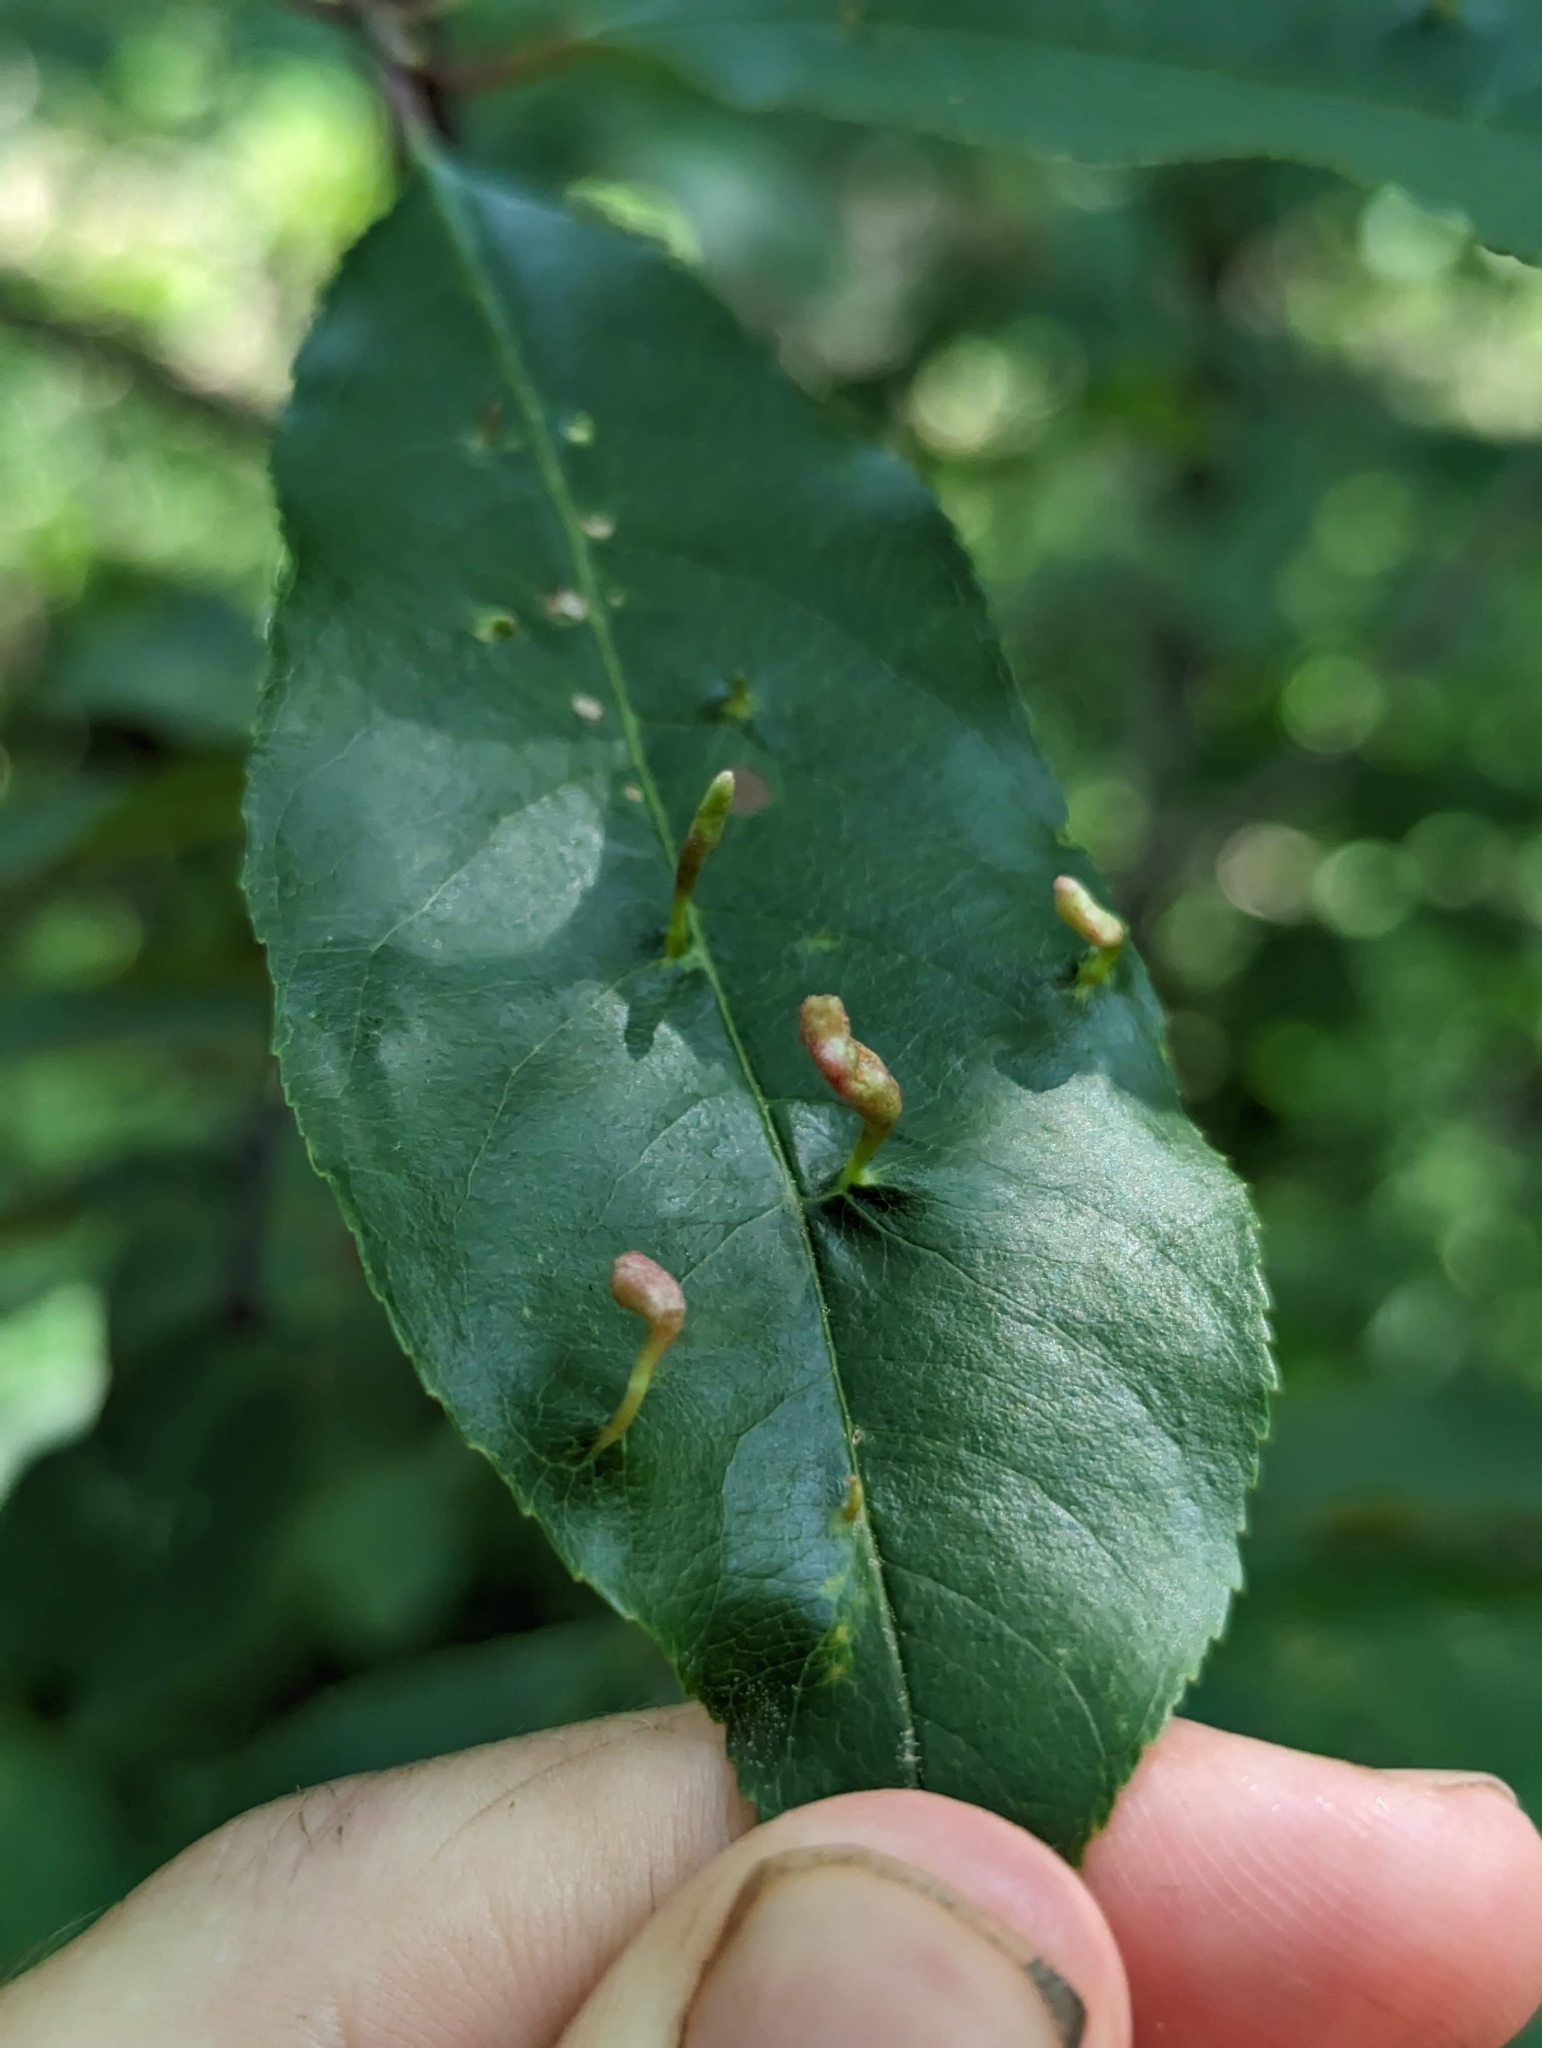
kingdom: Animalia
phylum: Arthropoda
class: Arachnida
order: Trombidiformes
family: Eriophyidae
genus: Eriophyes
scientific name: Eriophyes
